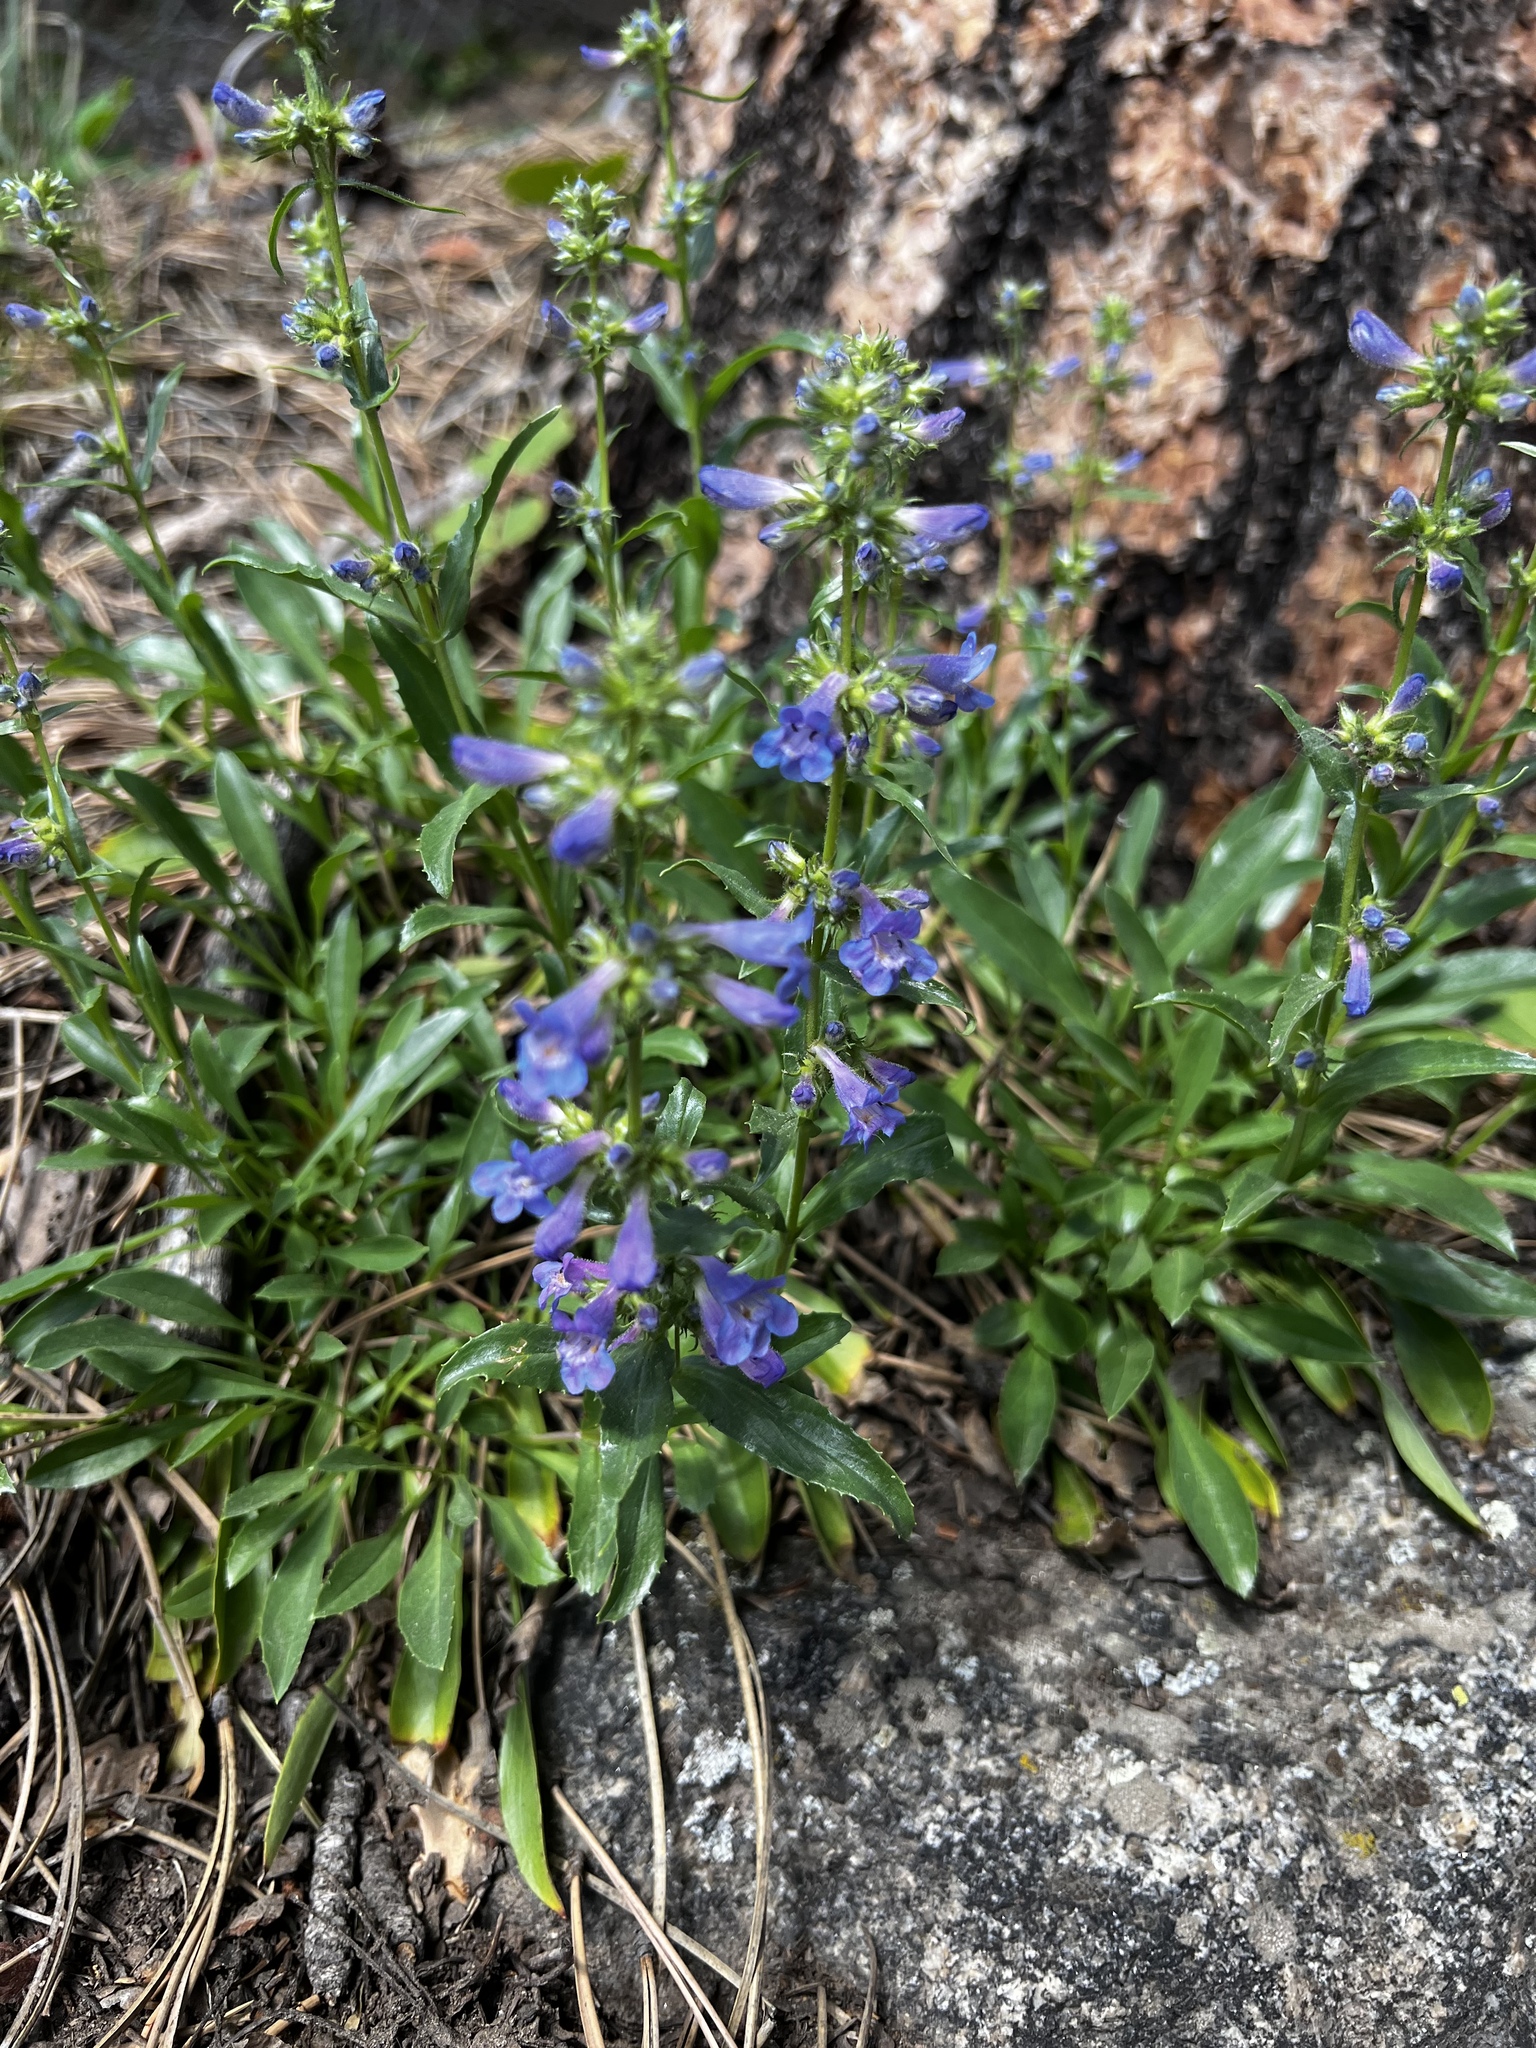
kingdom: Plantae
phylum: Tracheophyta
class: Magnoliopsida
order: Lamiales
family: Plantaginaceae
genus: Penstemon
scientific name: Penstemon virens
